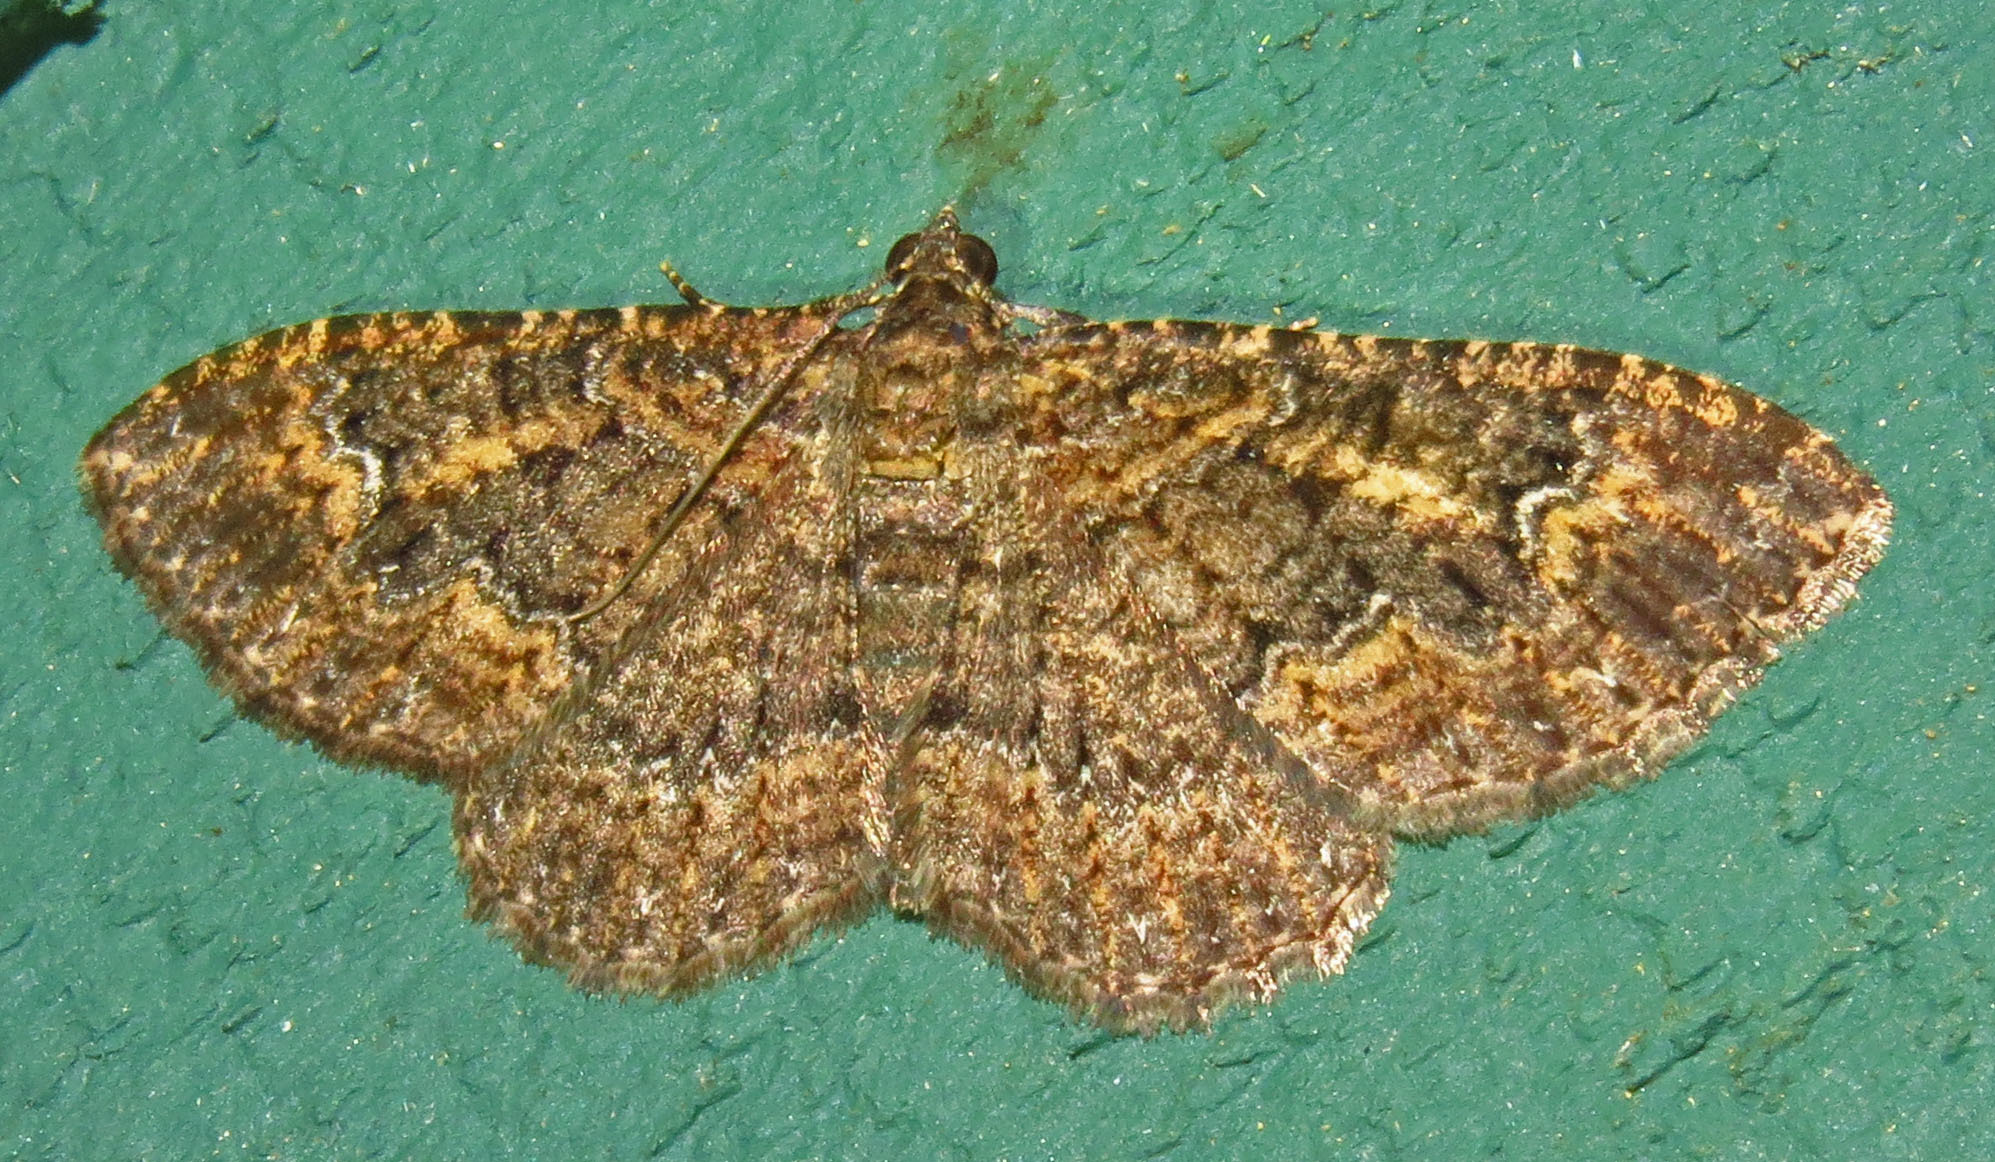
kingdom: Animalia
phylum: Arthropoda
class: Insecta
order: Lepidoptera
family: Geometridae
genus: Disclisioprocta
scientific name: Disclisioprocta stellata
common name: Somber carpet
